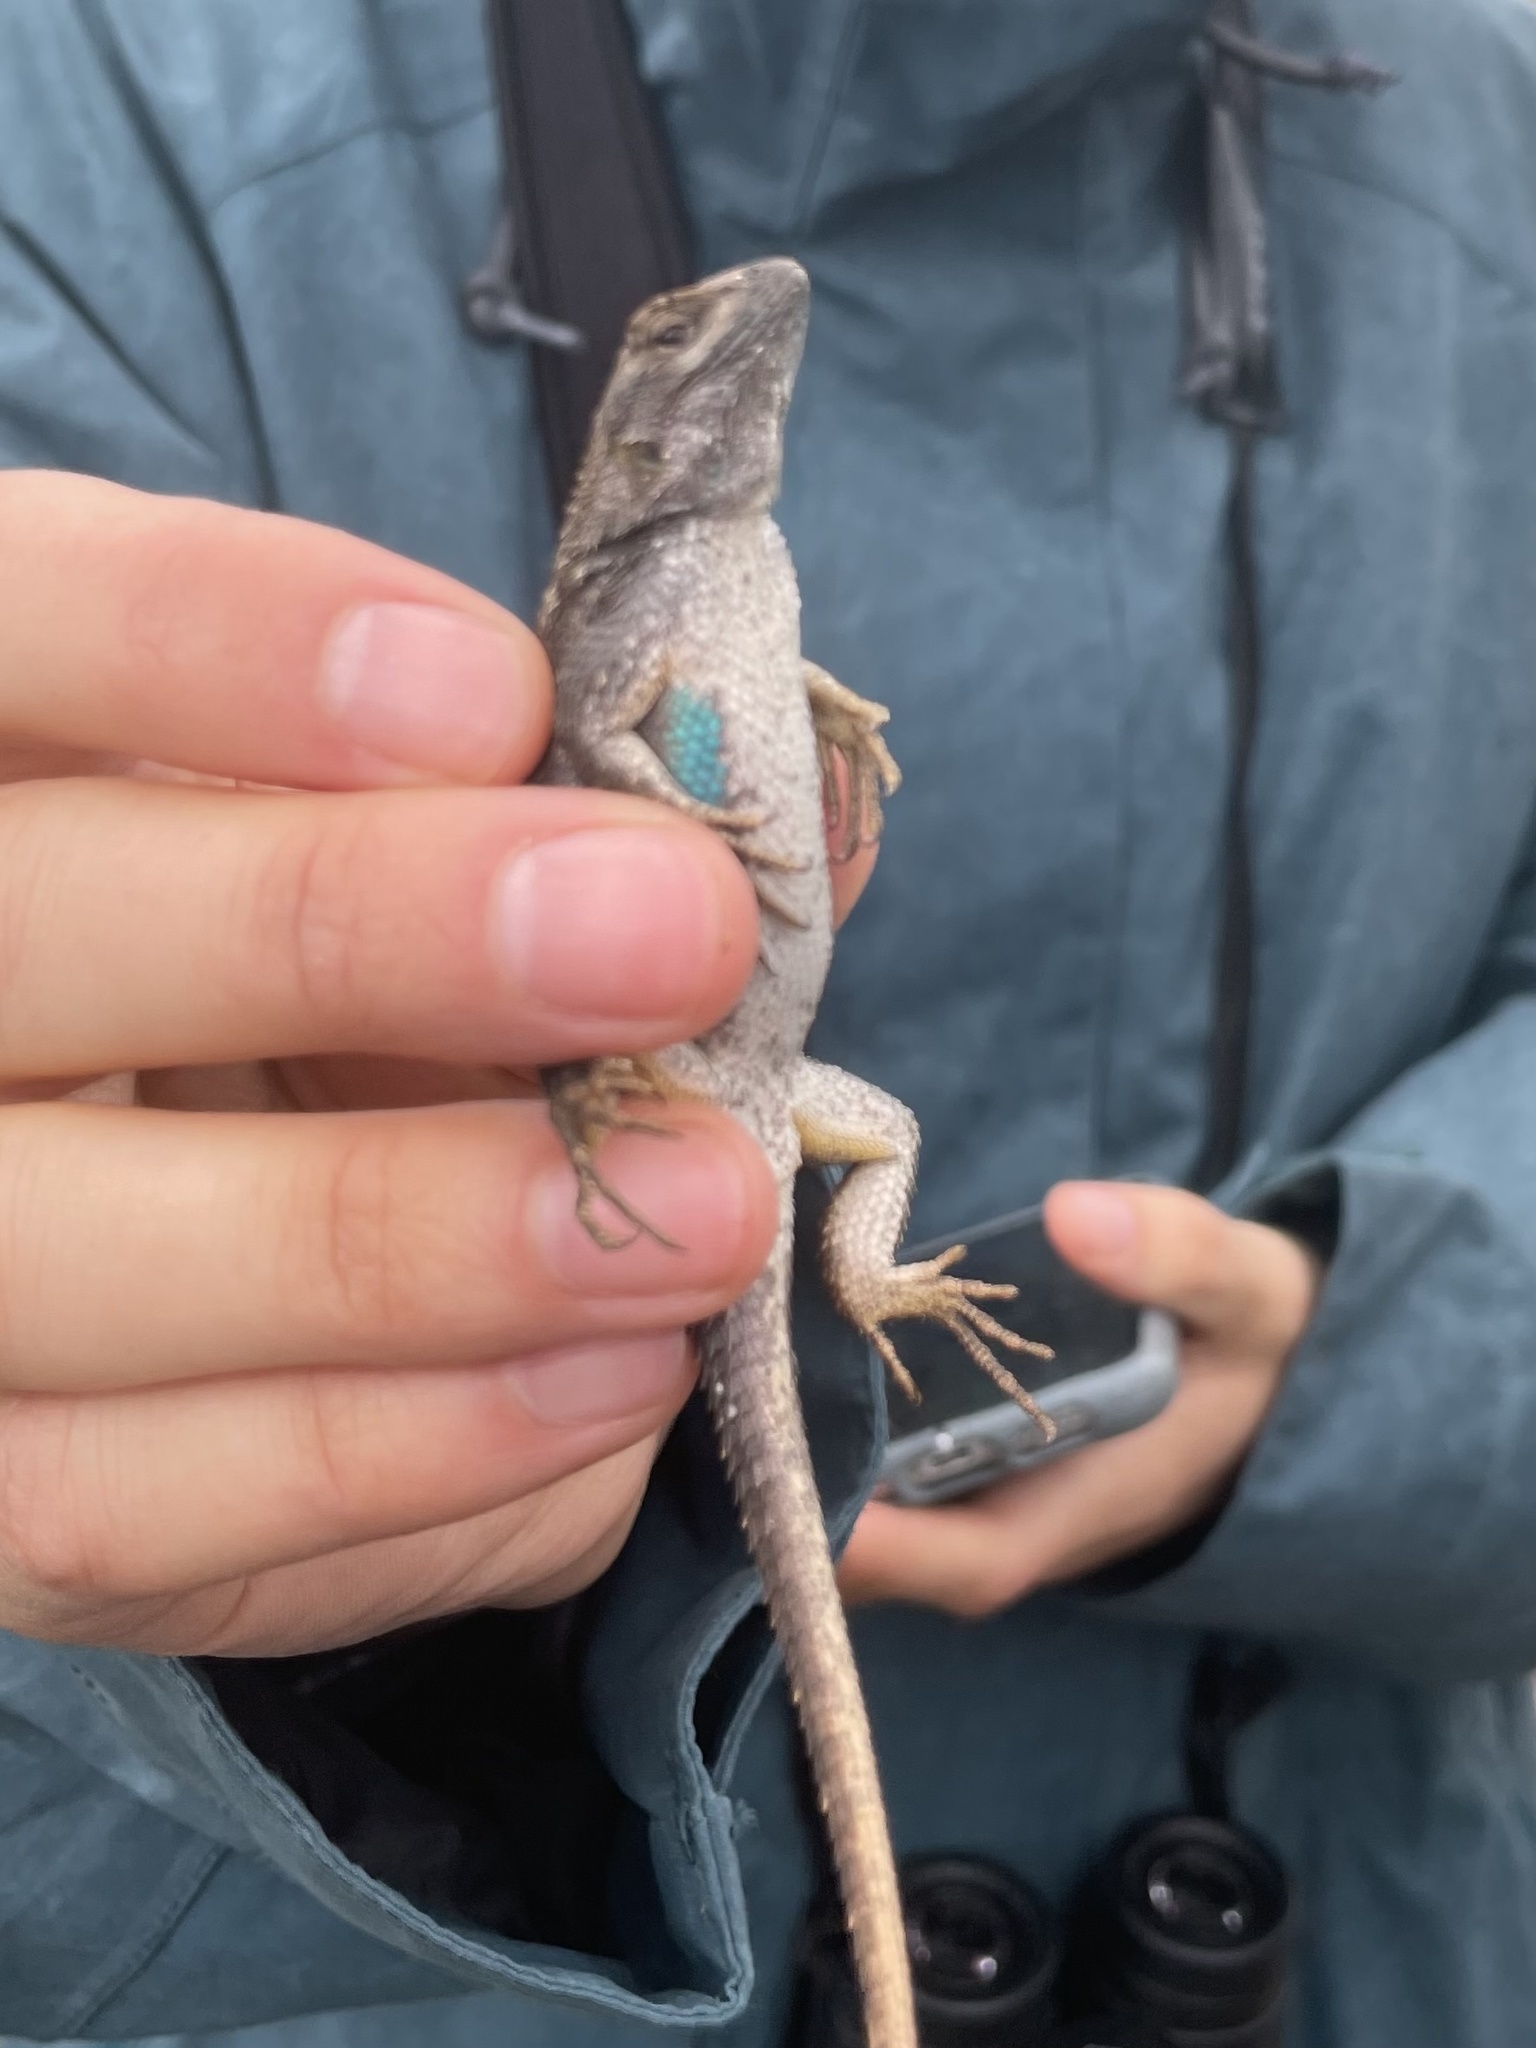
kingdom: Animalia
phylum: Chordata
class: Squamata
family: Phrynosomatidae
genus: Sceloporus
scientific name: Sceloporus occidentalis
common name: Western fence lizard
